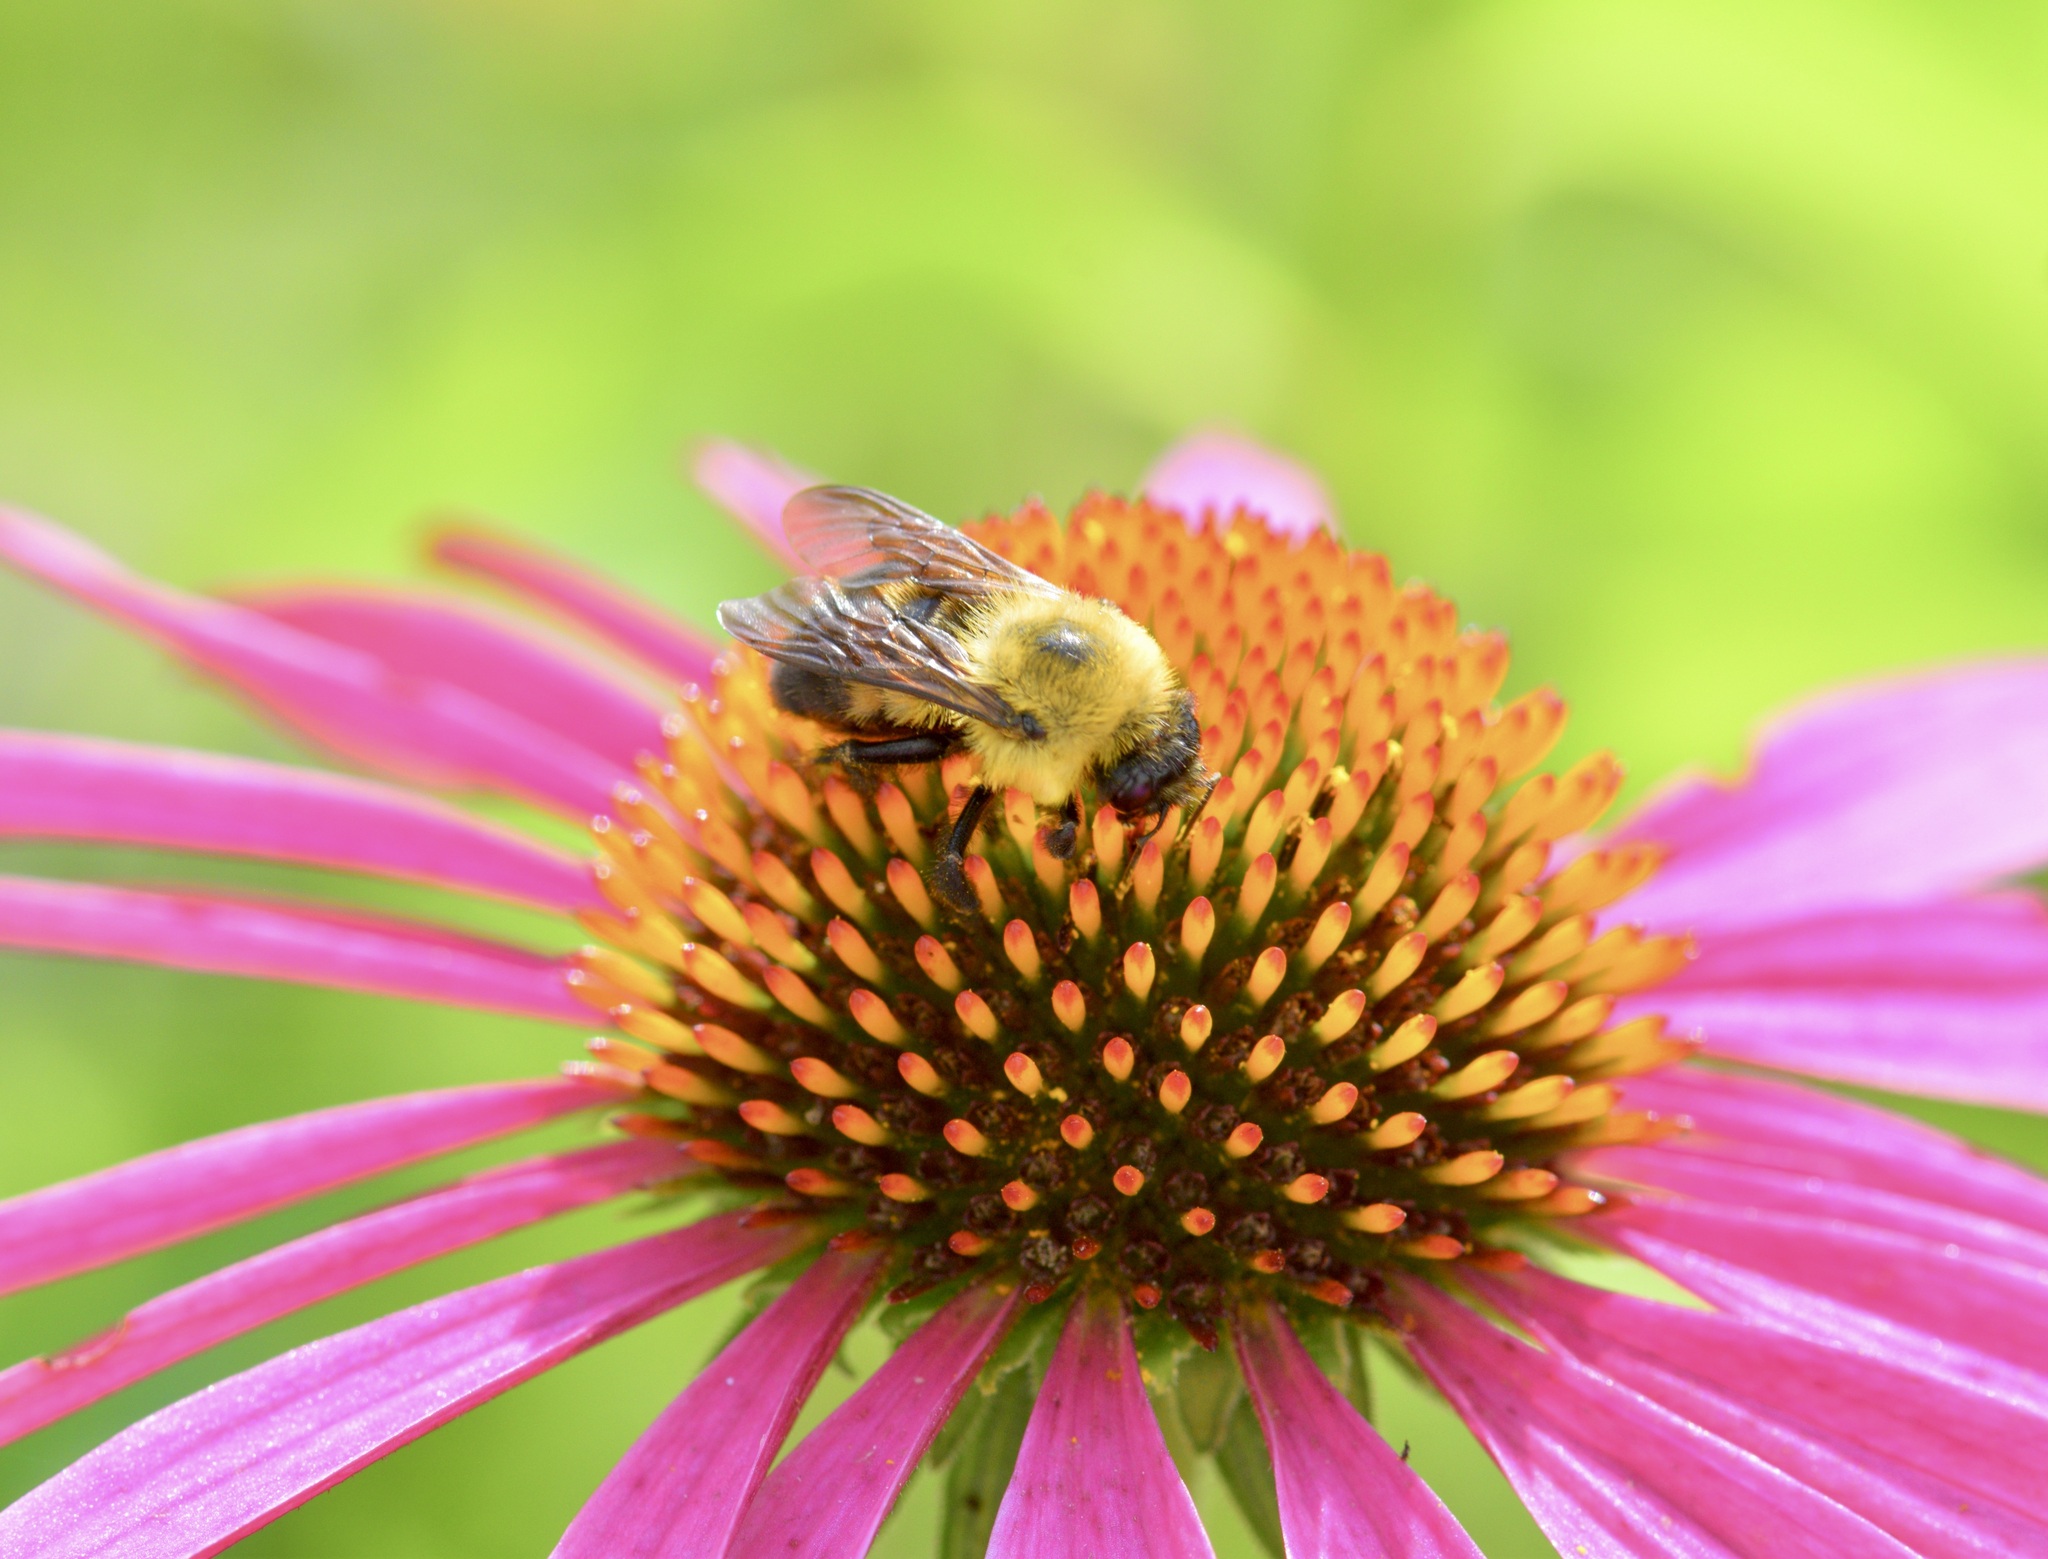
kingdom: Animalia
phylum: Arthropoda
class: Insecta
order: Hymenoptera
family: Apidae
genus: Bombus
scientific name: Bombus griseocollis
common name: Brown-belted bumble bee
